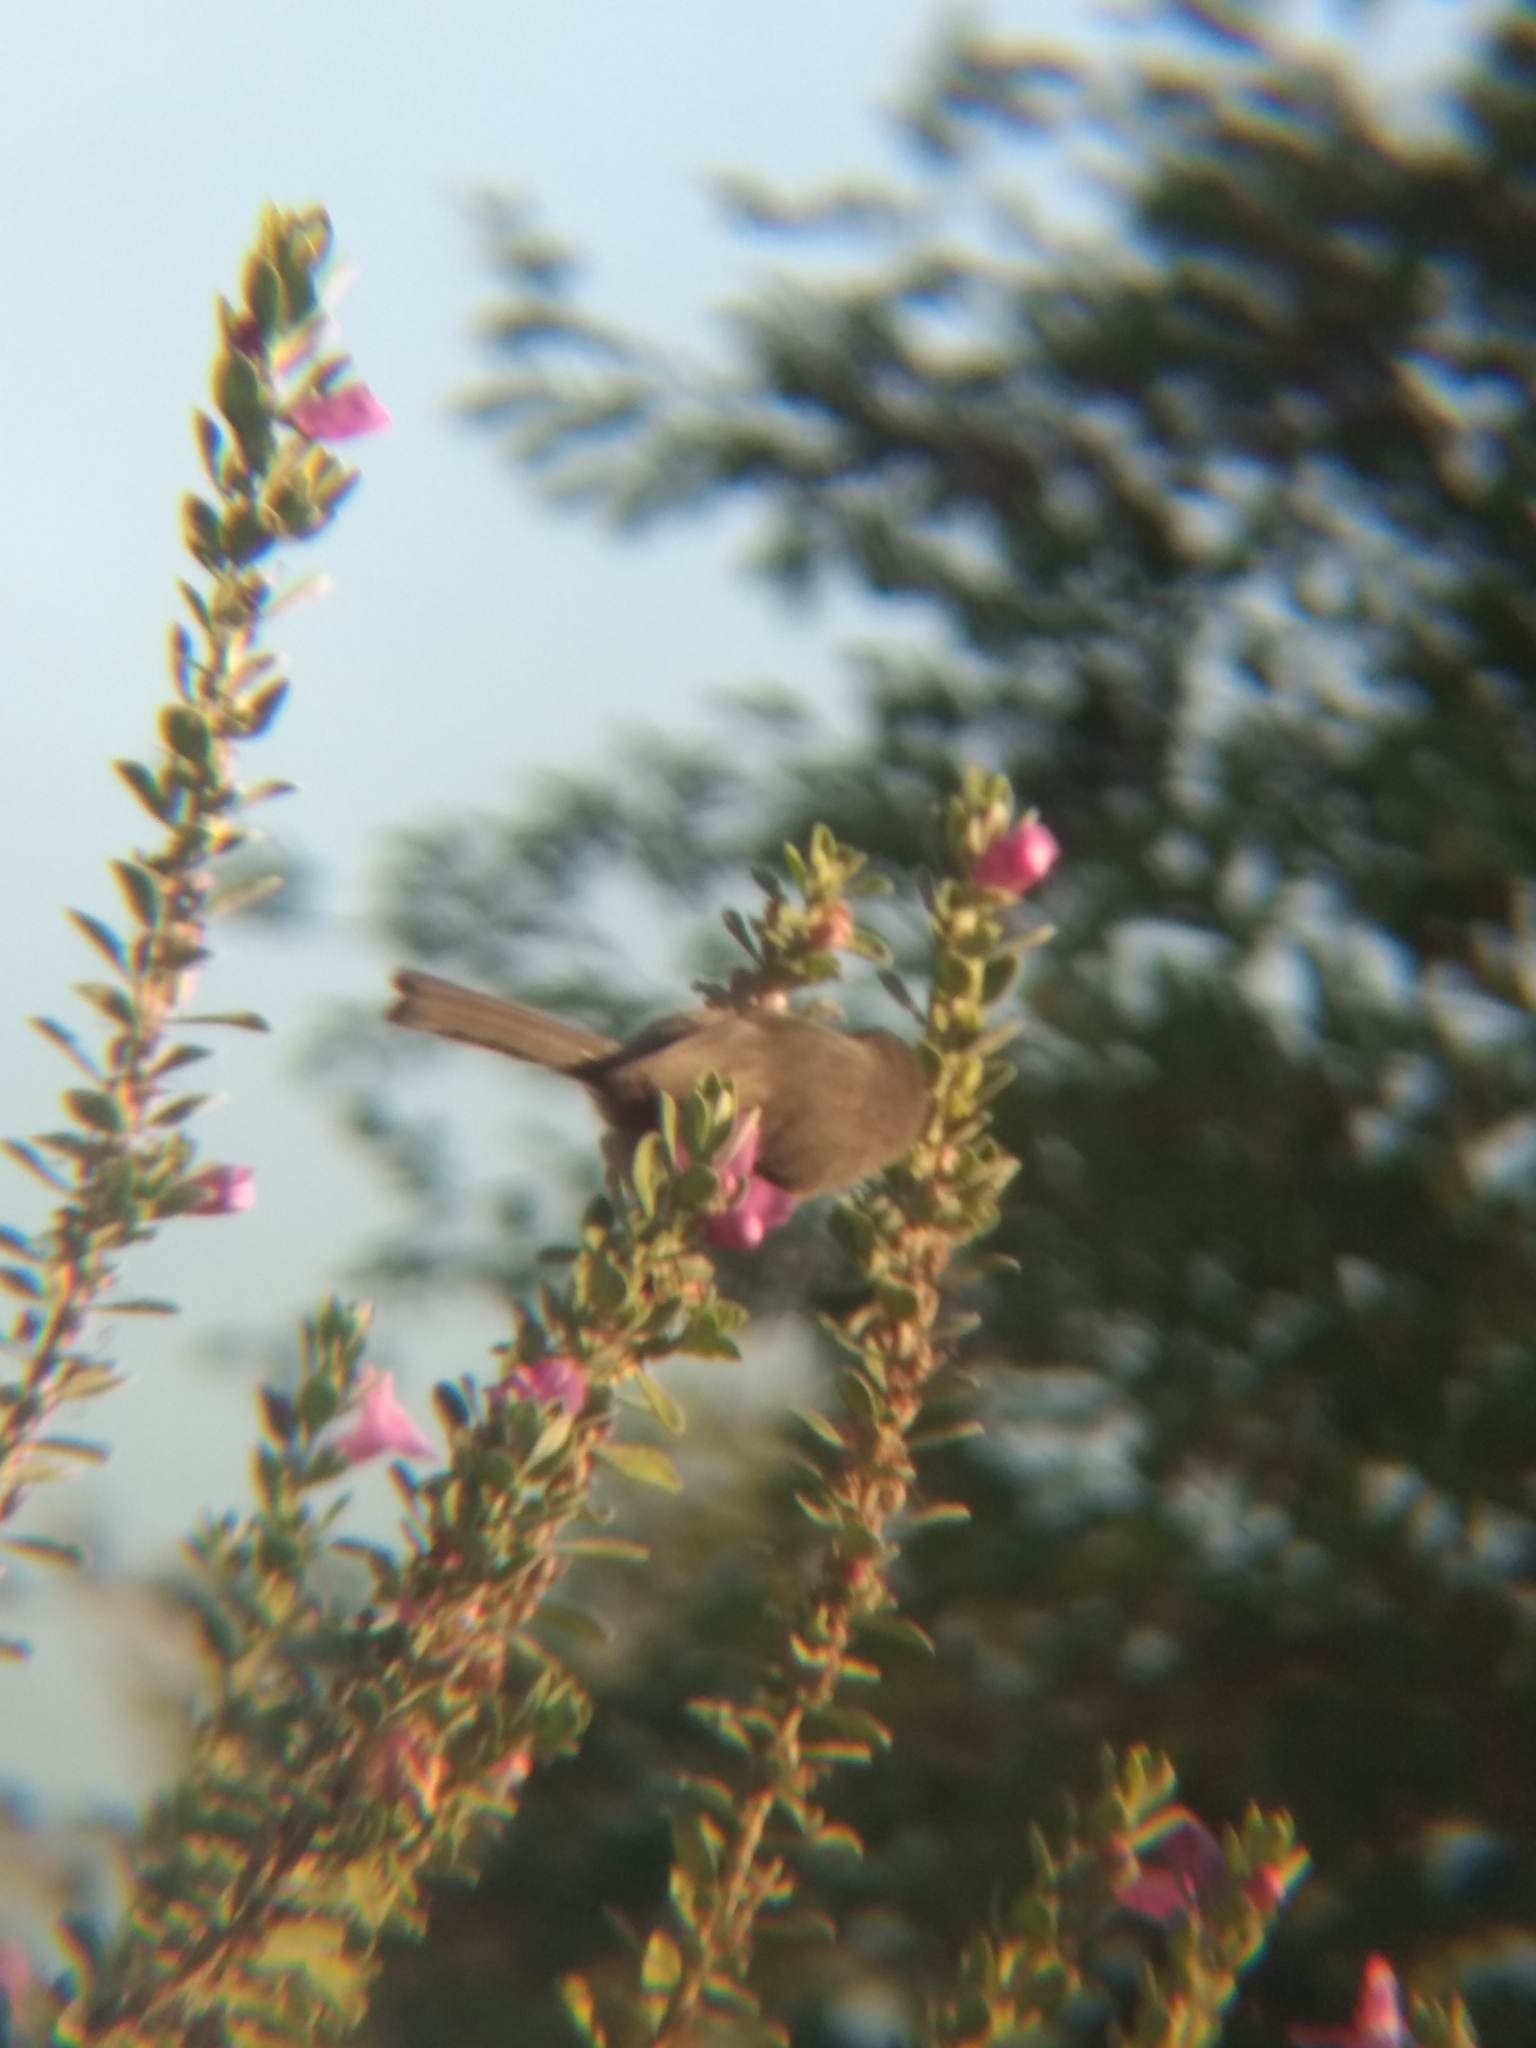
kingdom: Animalia
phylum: Chordata
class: Aves
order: Passeriformes
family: Aegithalidae
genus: Psaltriparus
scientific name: Psaltriparus minimus
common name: American bushtit
